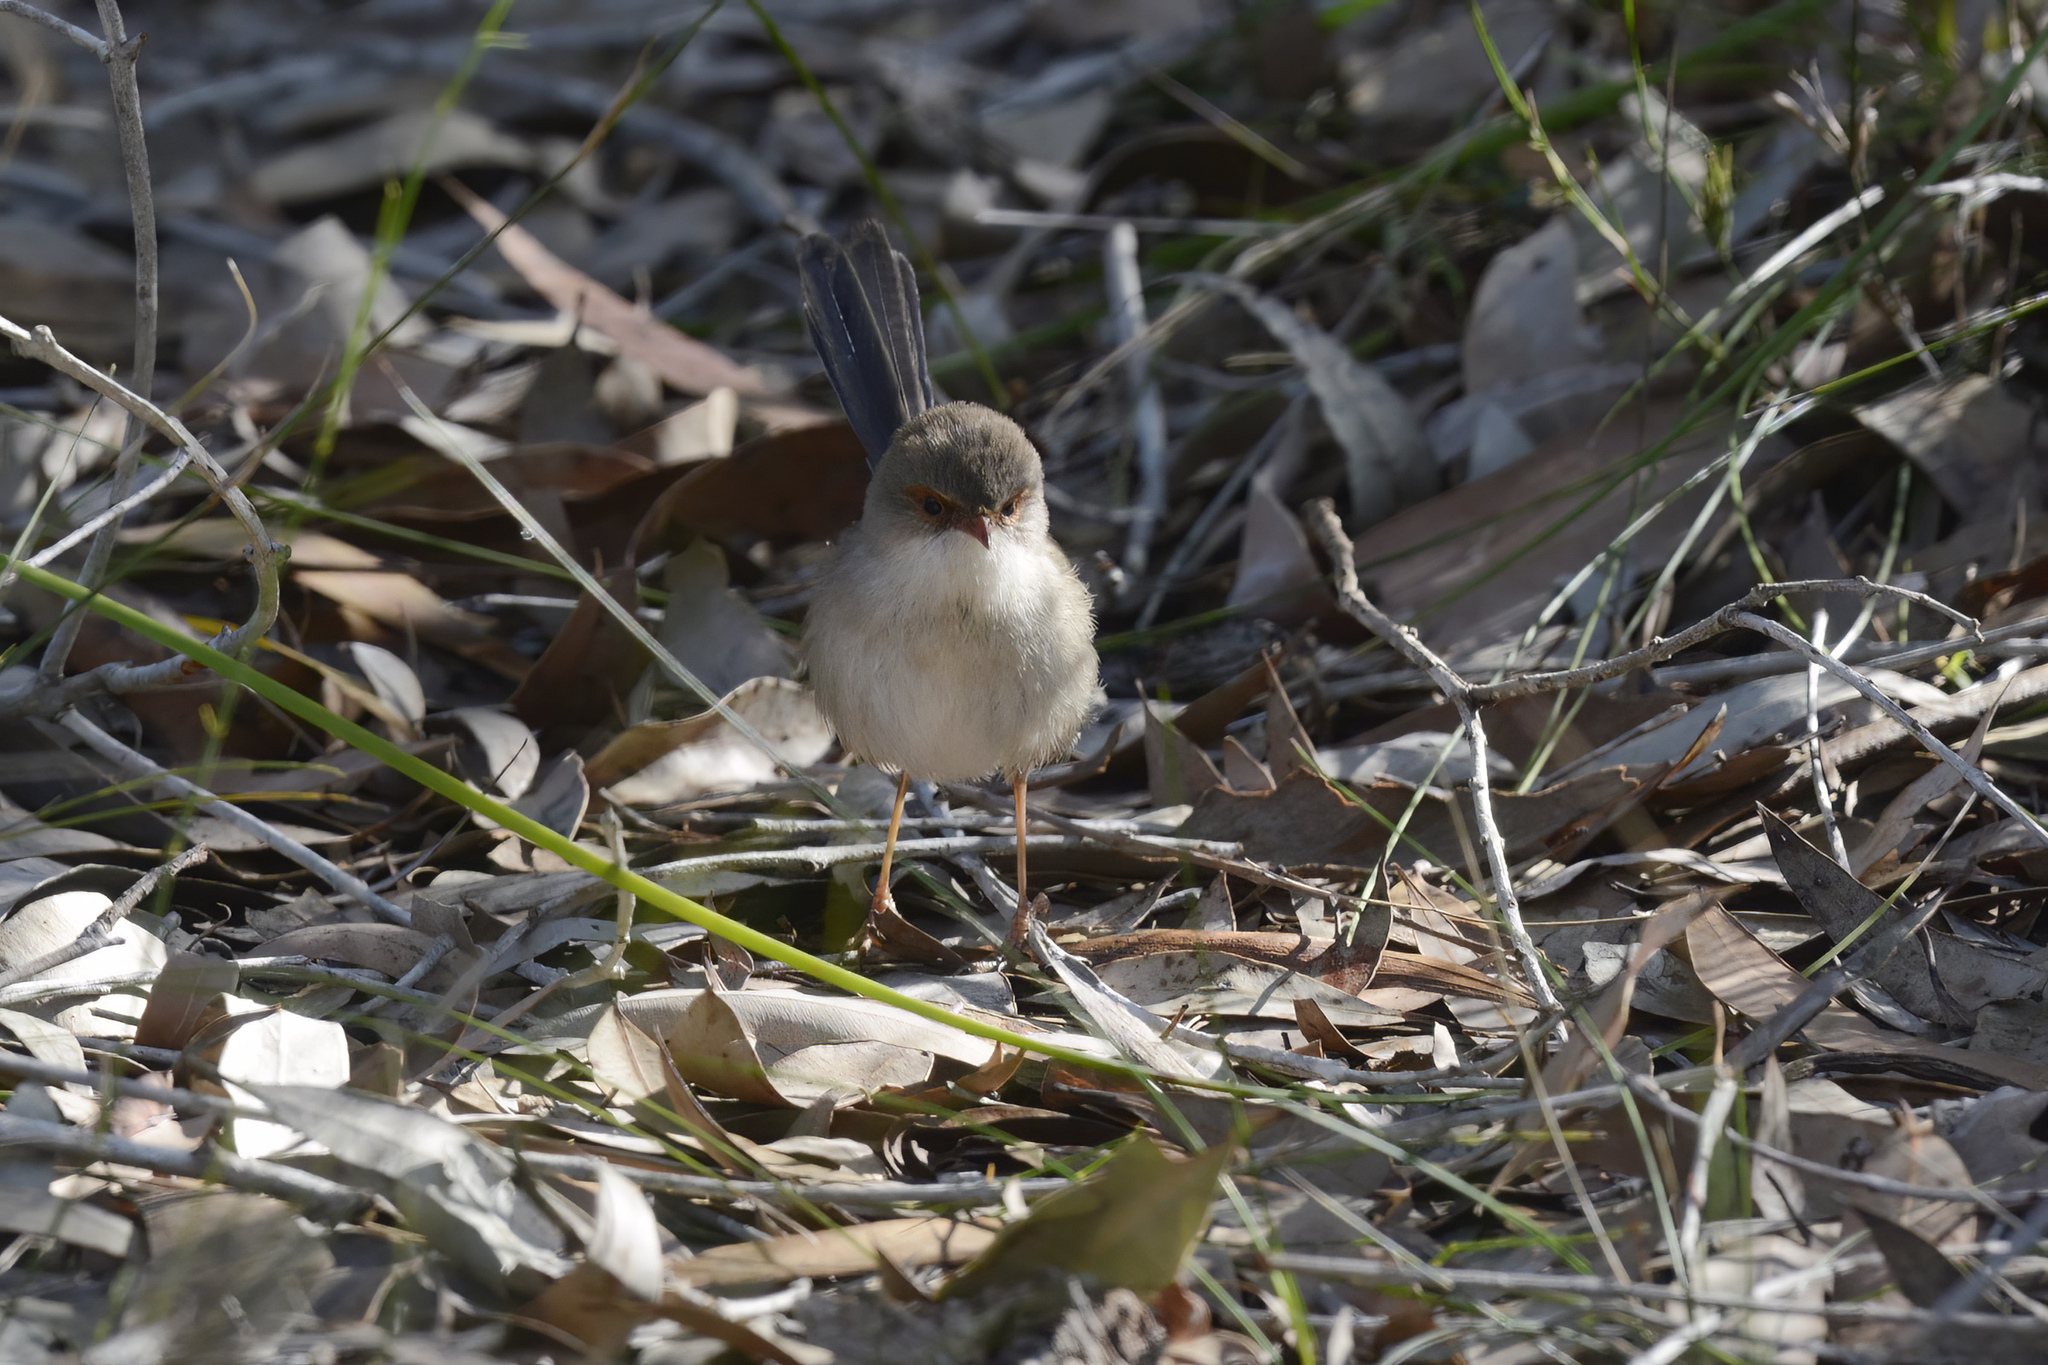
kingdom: Animalia
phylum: Chordata
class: Aves
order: Passeriformes
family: Maluridae
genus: Malurus
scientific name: Malurus cyaneus
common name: Superb fairywren
